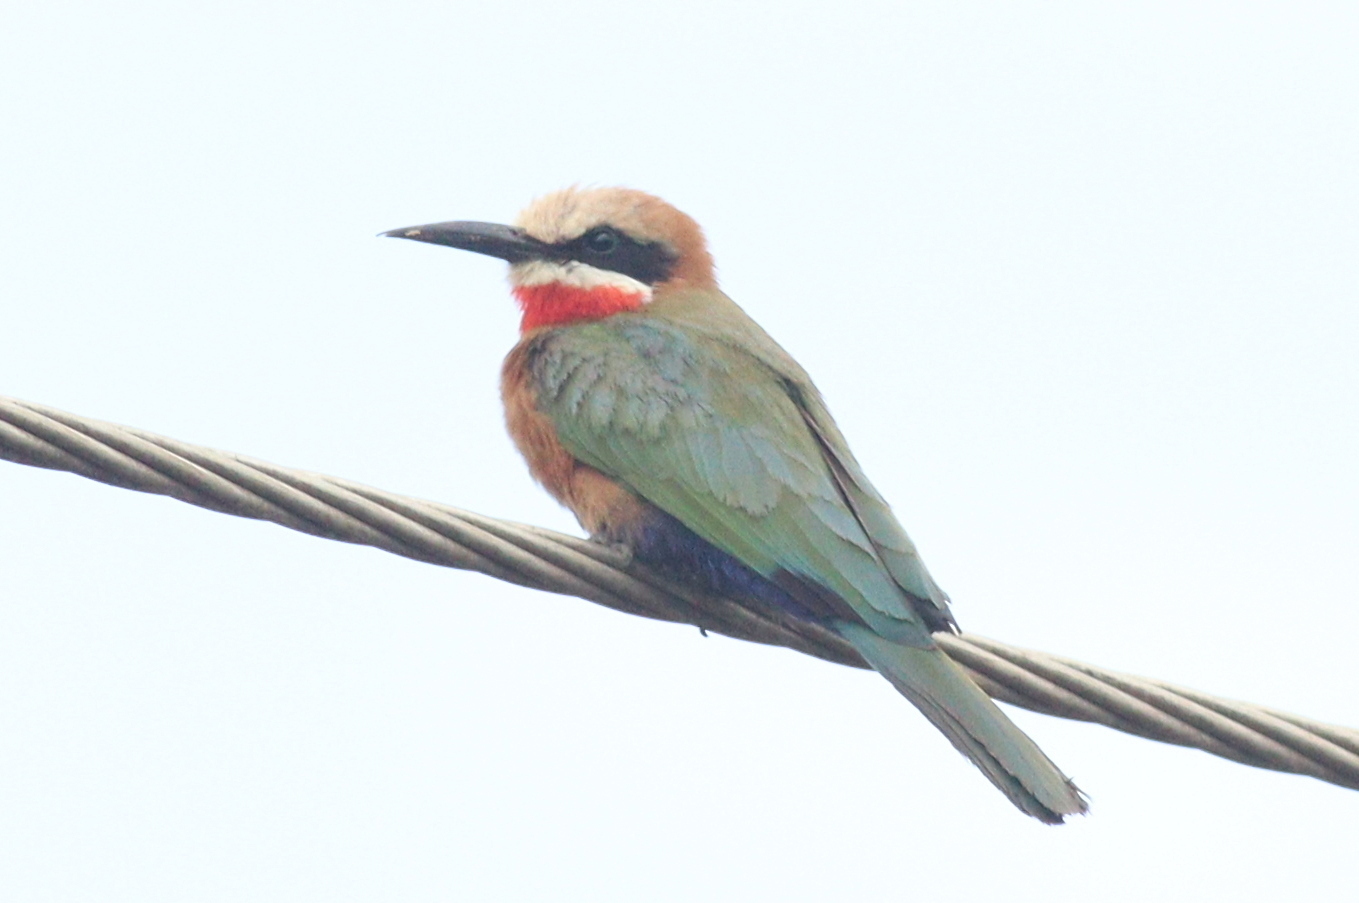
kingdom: Animalia
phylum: Chordata
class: Aves
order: Coraciiformes
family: Meropidae
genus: Merops
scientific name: Merops bullockoides
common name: White-fronted bee-eater
